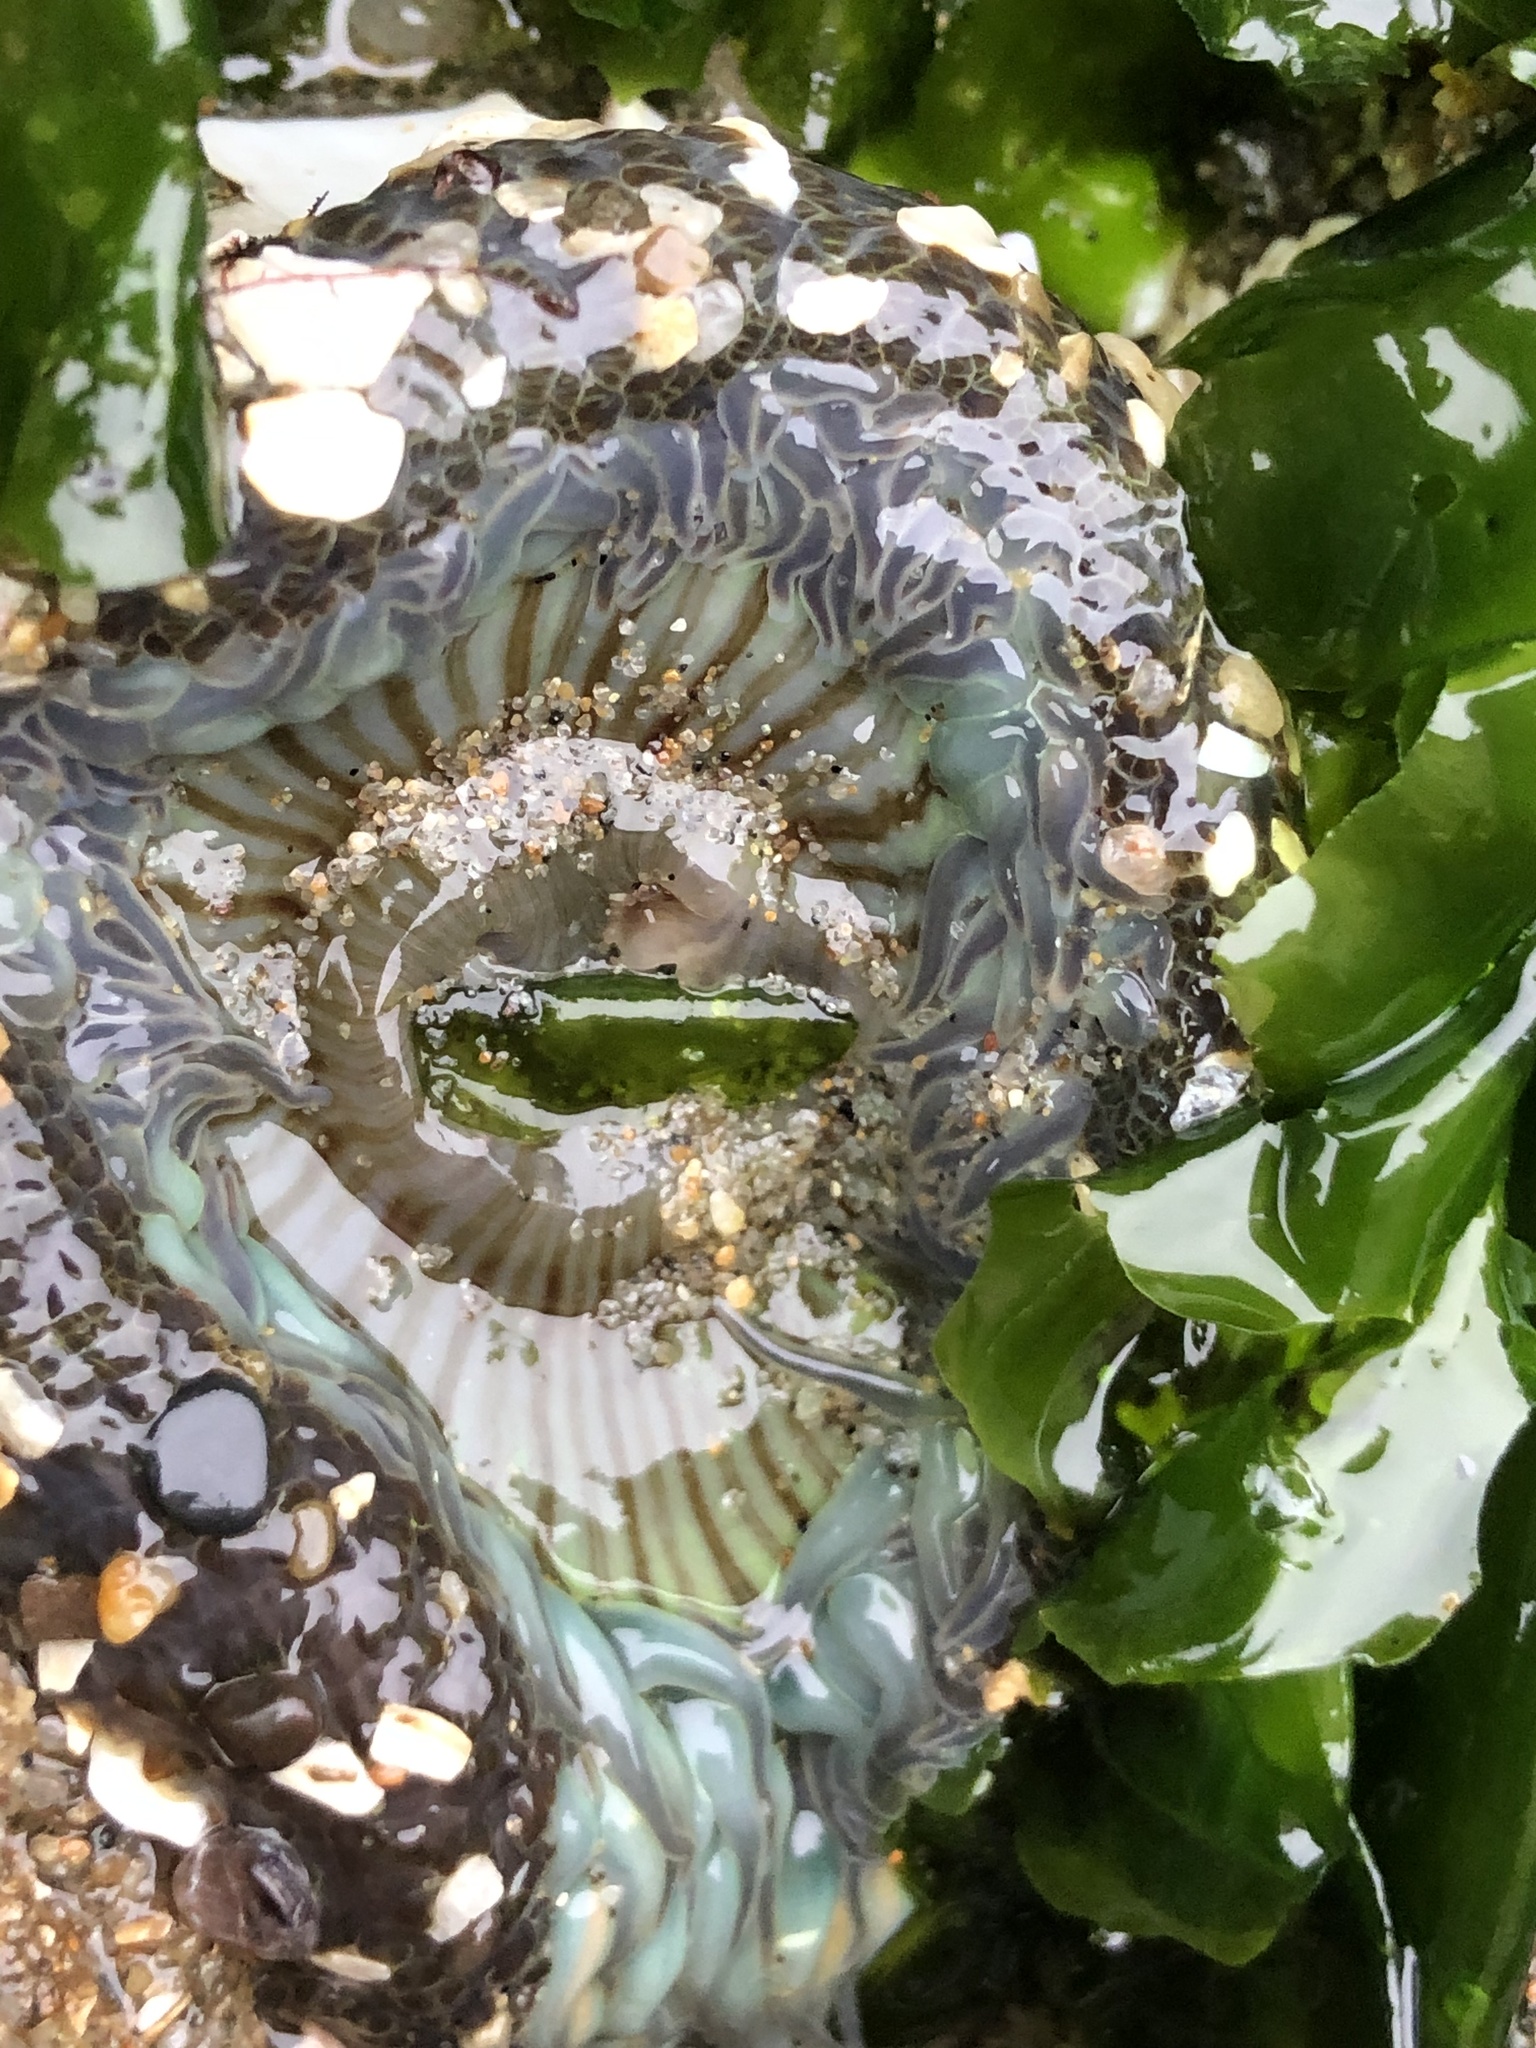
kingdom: Animalia
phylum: Cnidaria
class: Anthozoa
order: Actiniaria
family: Actiniidae
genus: Anthopleura
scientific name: Anthopleura sola
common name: Sun anemone
